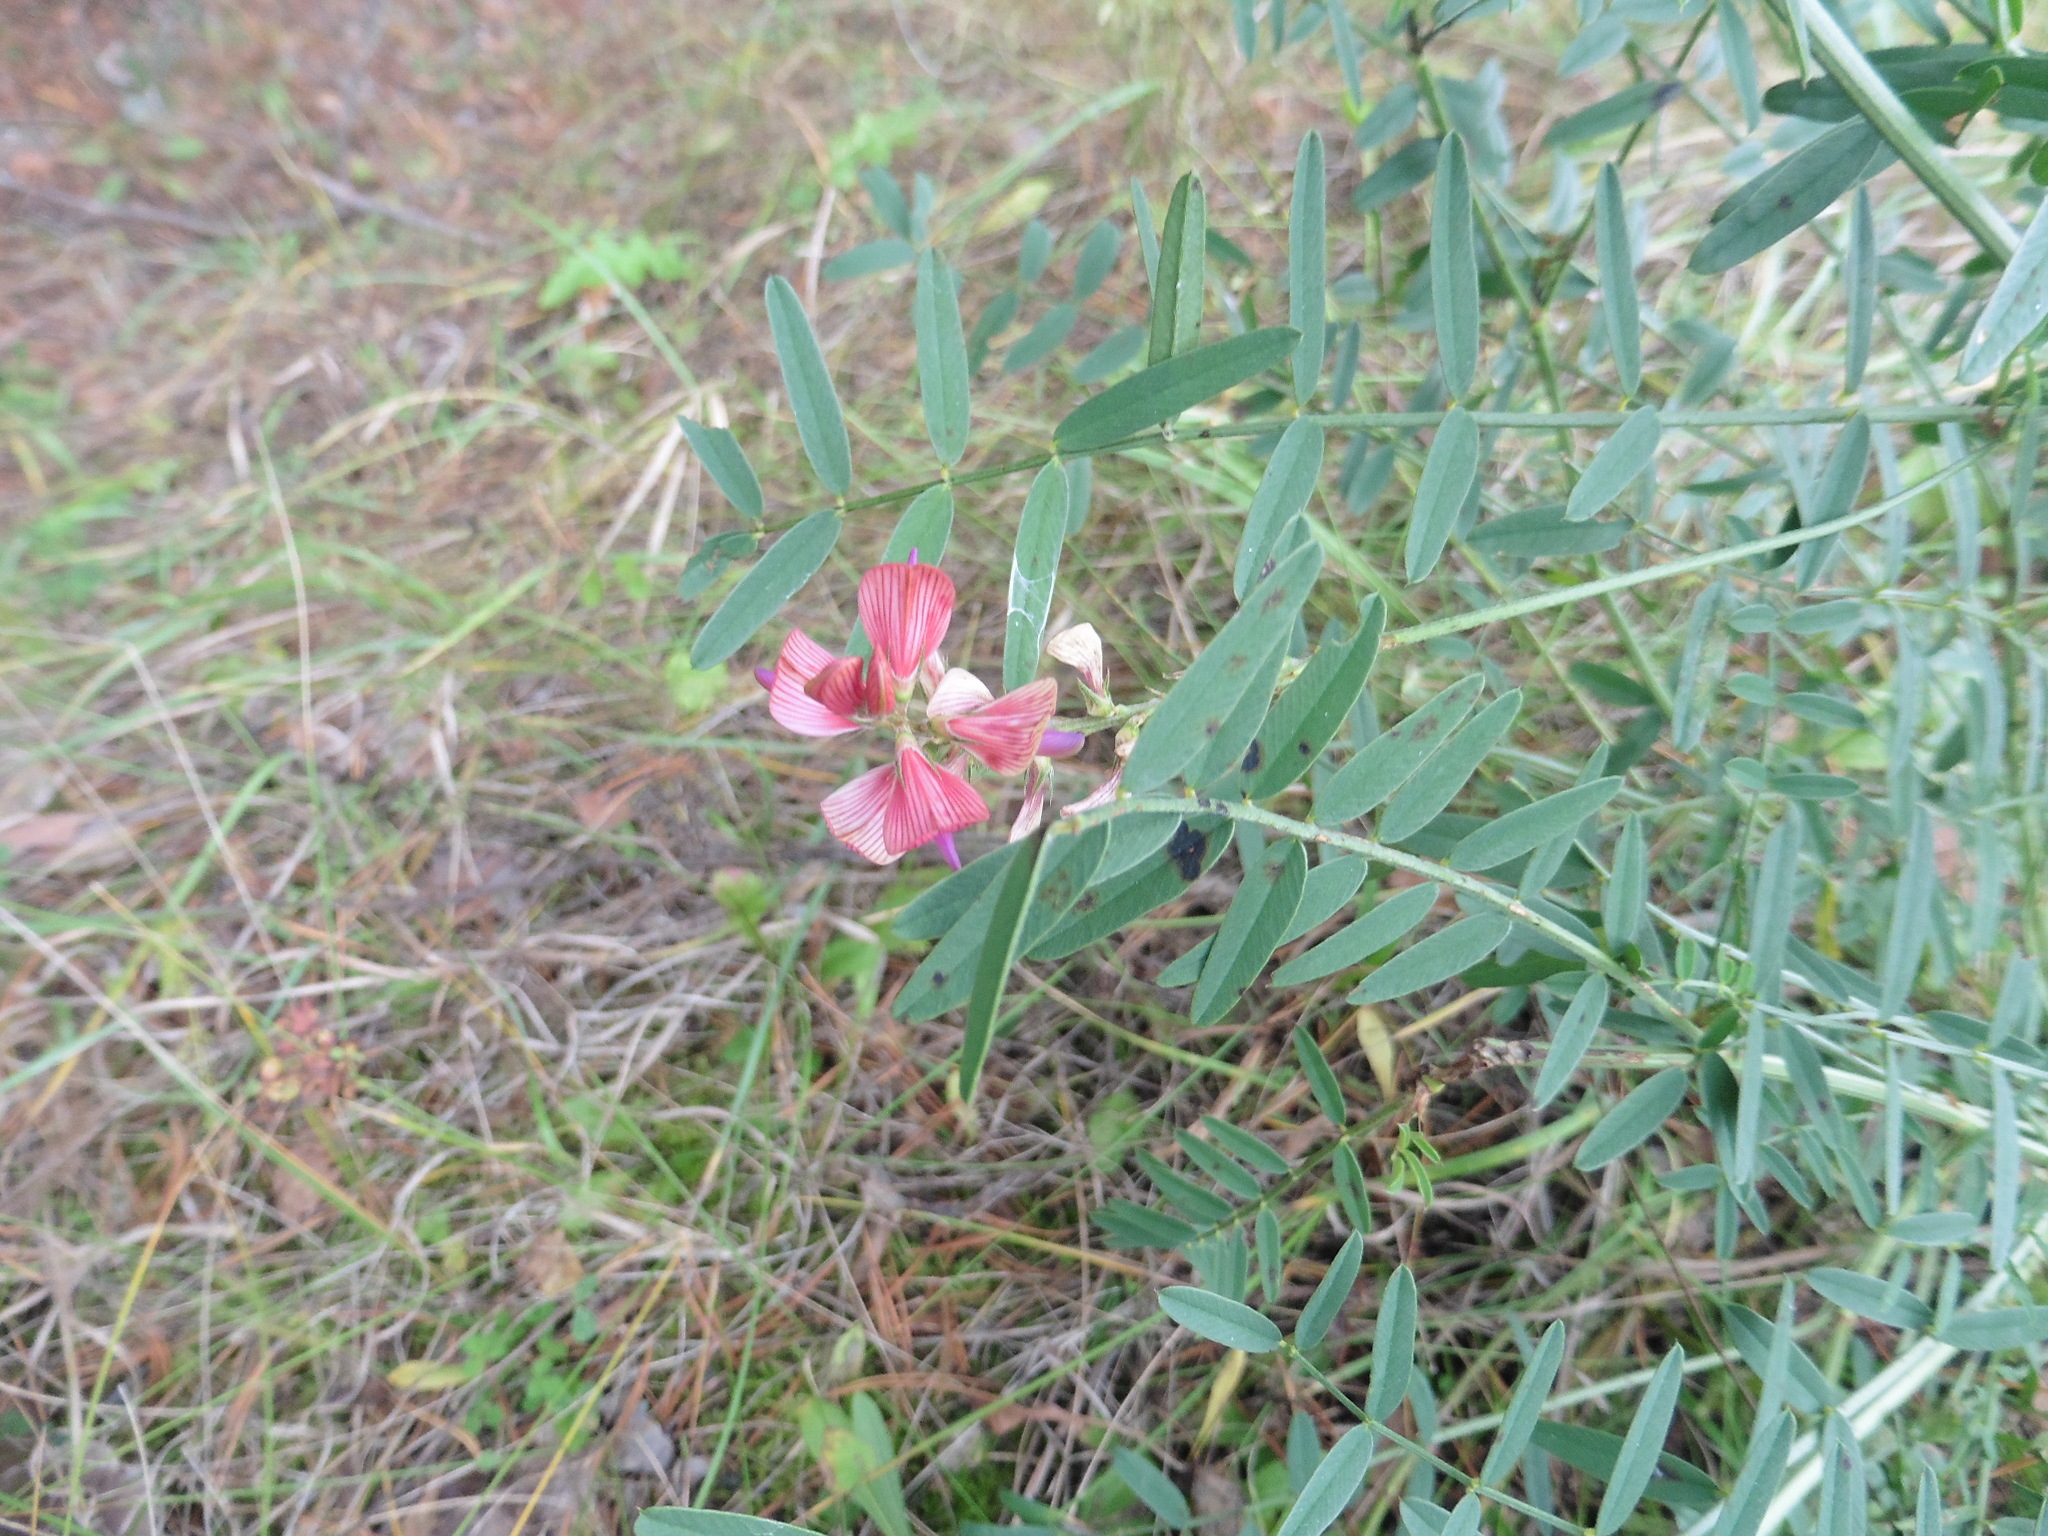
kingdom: Plantae
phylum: Tracheophyta
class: Magnoliopsida
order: Fabales
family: Fabaceae
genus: Onobrychis
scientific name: Onobrychis viciifolia
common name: Sainfoin
